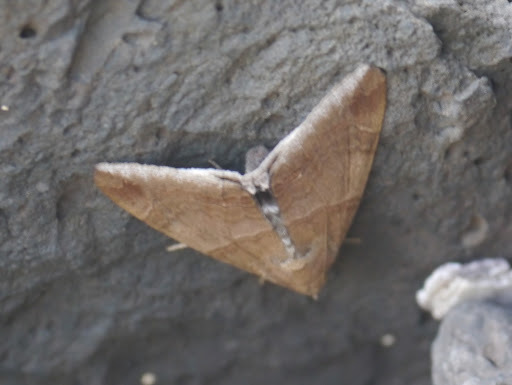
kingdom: Animalia
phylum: Arthropoda
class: Insecta
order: Lepidoptera
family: Erebidae
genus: Achaea
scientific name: Achaea janata
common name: Croton caterpillar
